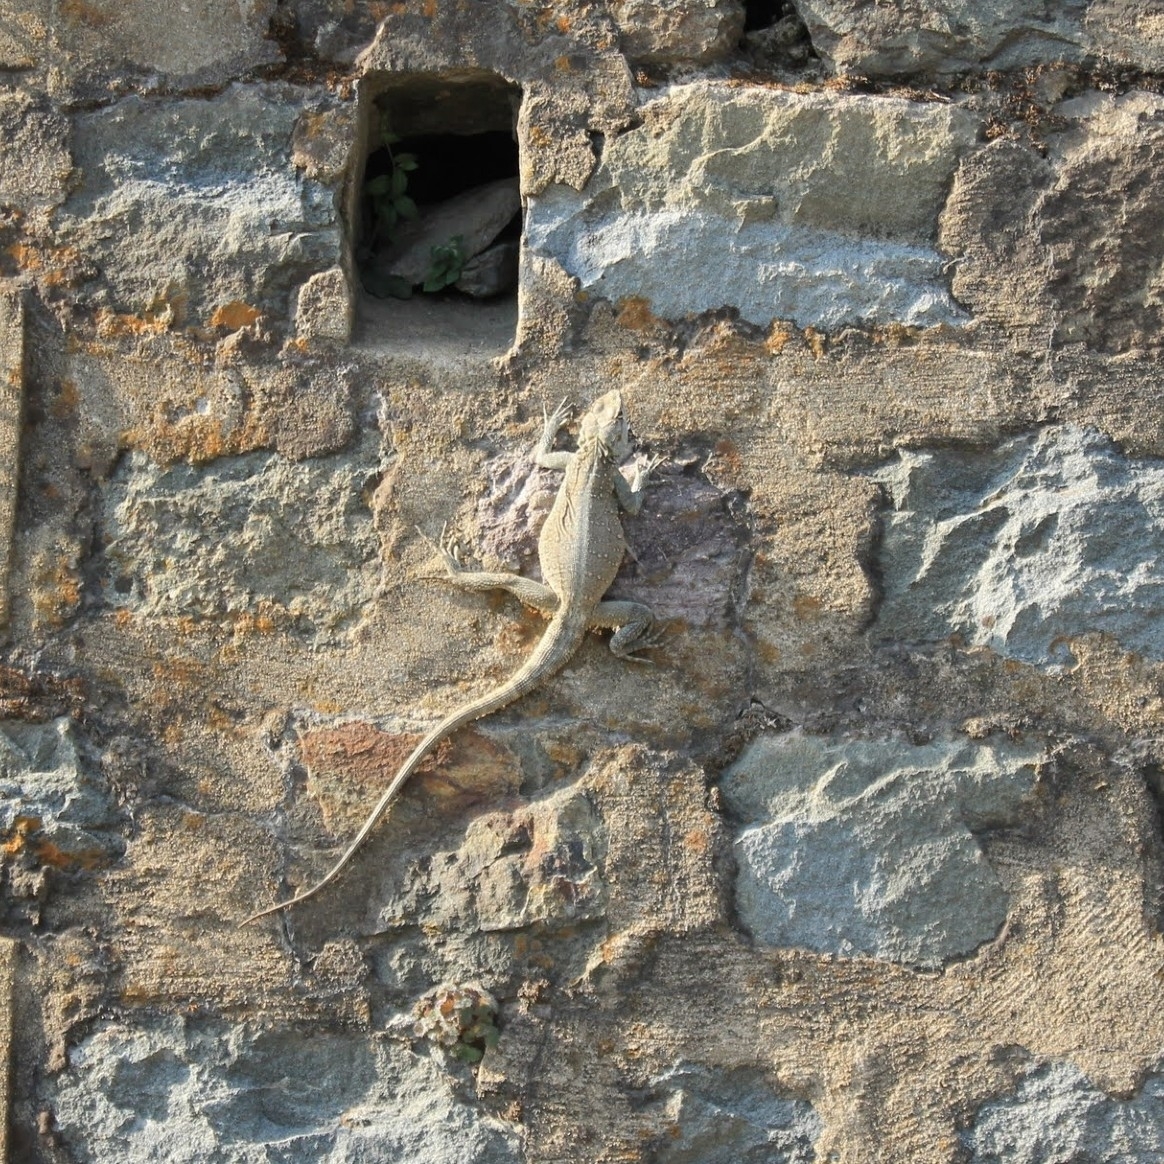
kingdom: Animalia
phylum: Chordata
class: Squamata
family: Agamidae
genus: Laudakia
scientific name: Laudakia tuberculata
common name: Kashmir rock agama
